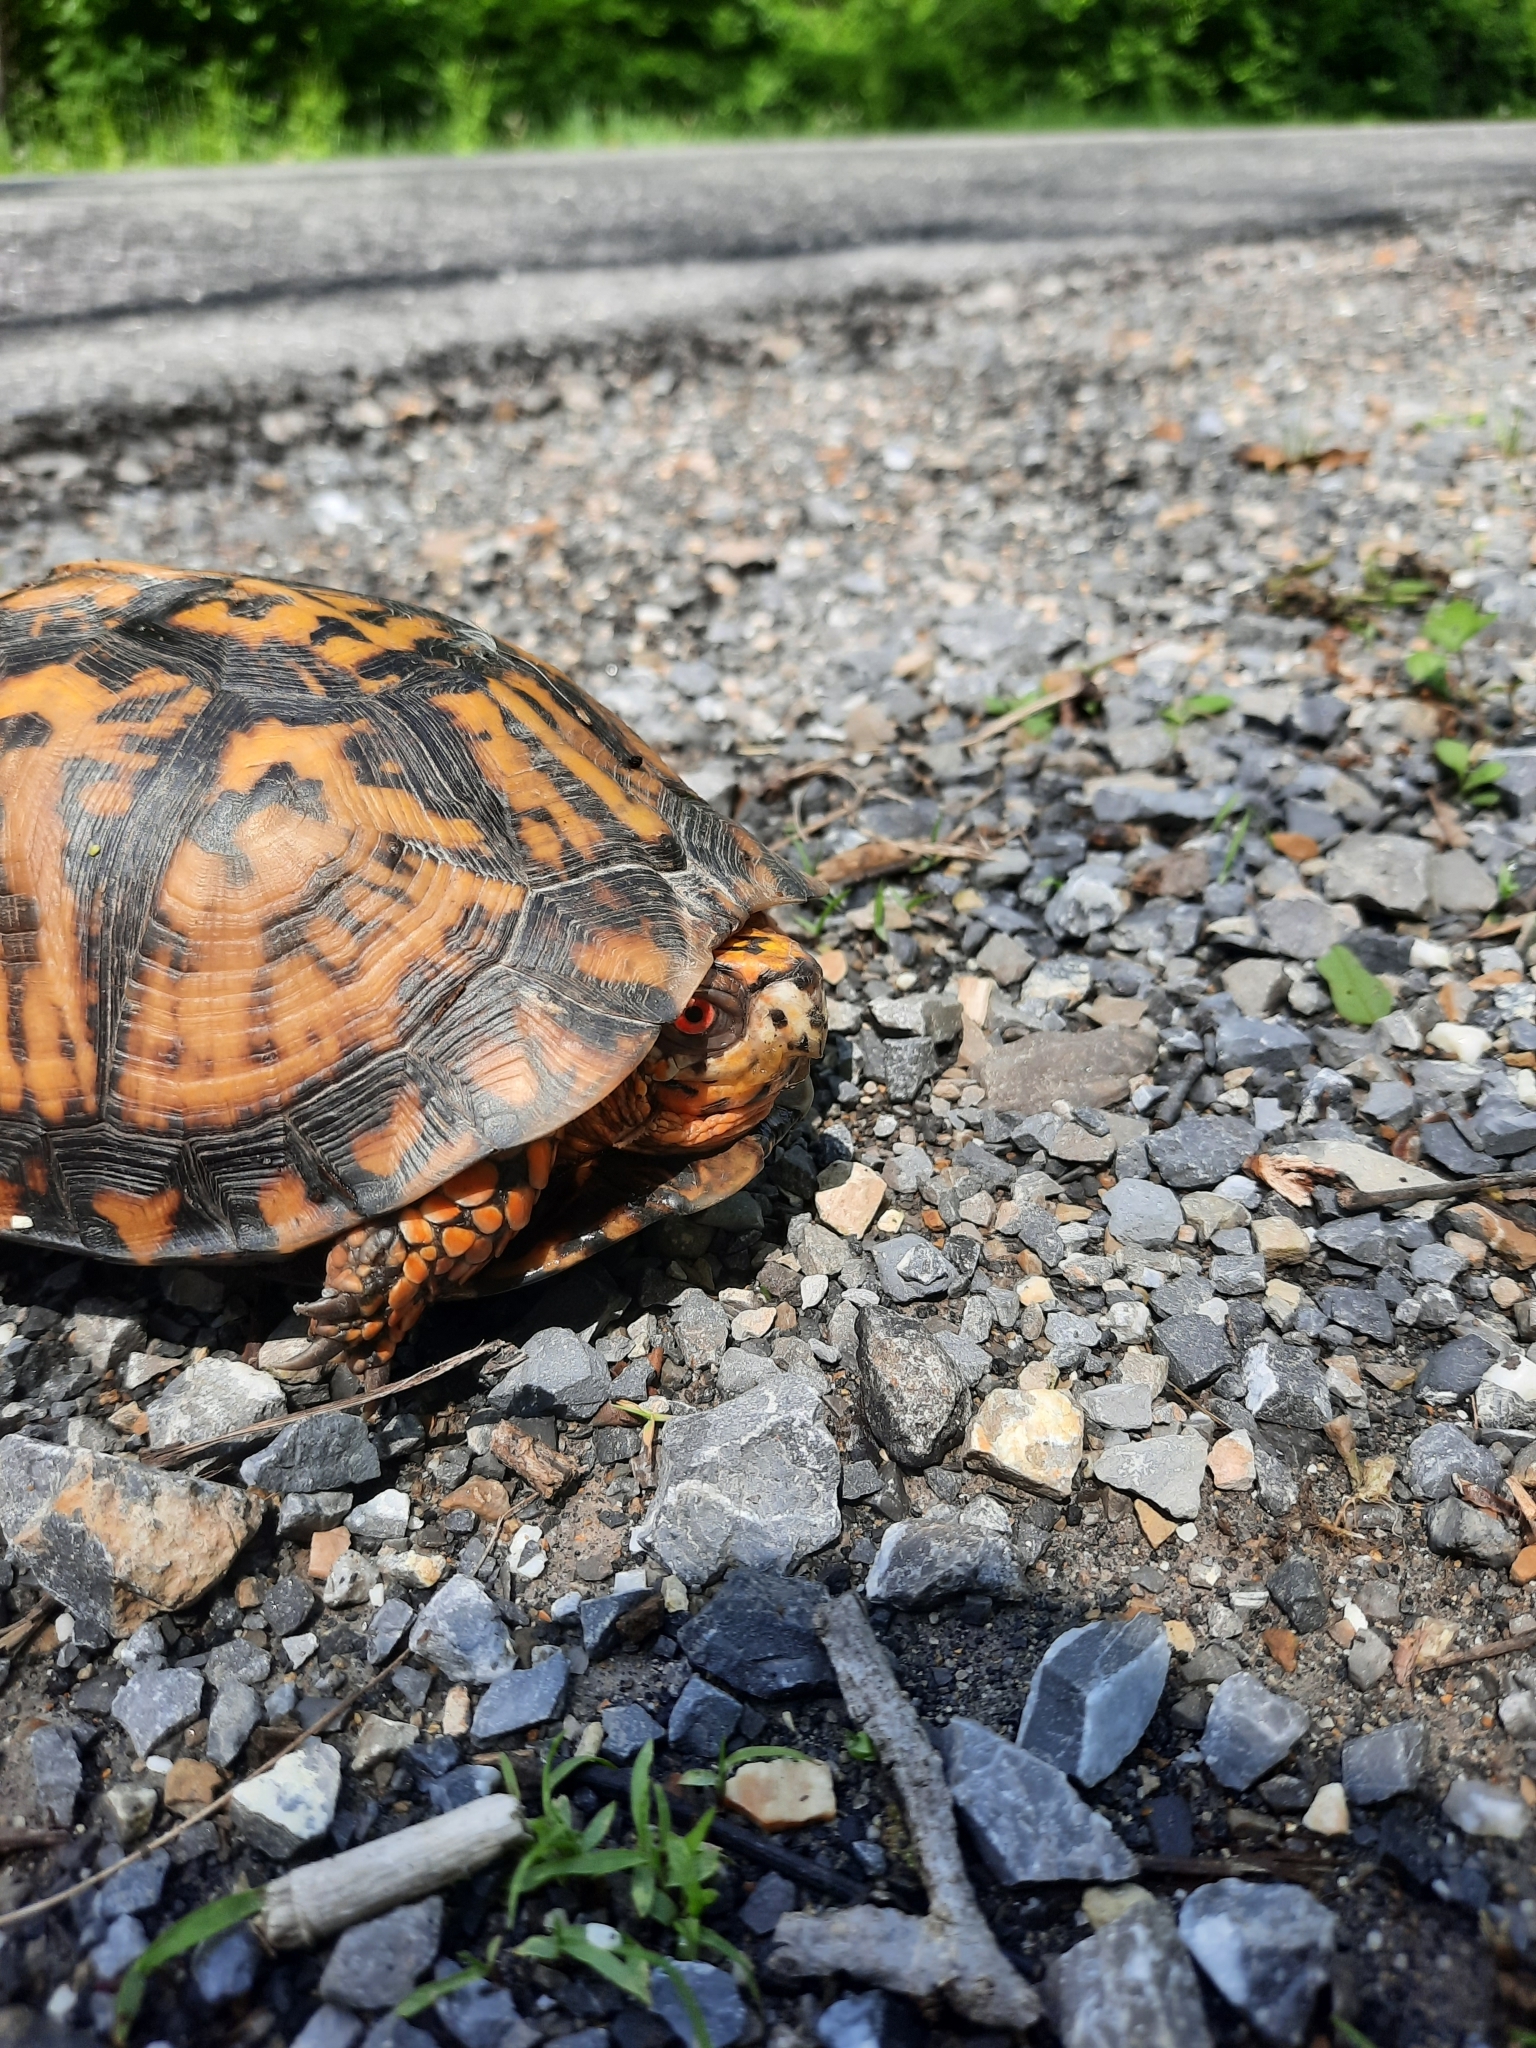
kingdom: Animalia
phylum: Chordata
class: Testudines
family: Emydidae
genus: Terrapene
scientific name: Terrapene carolina
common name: Common box turtle
